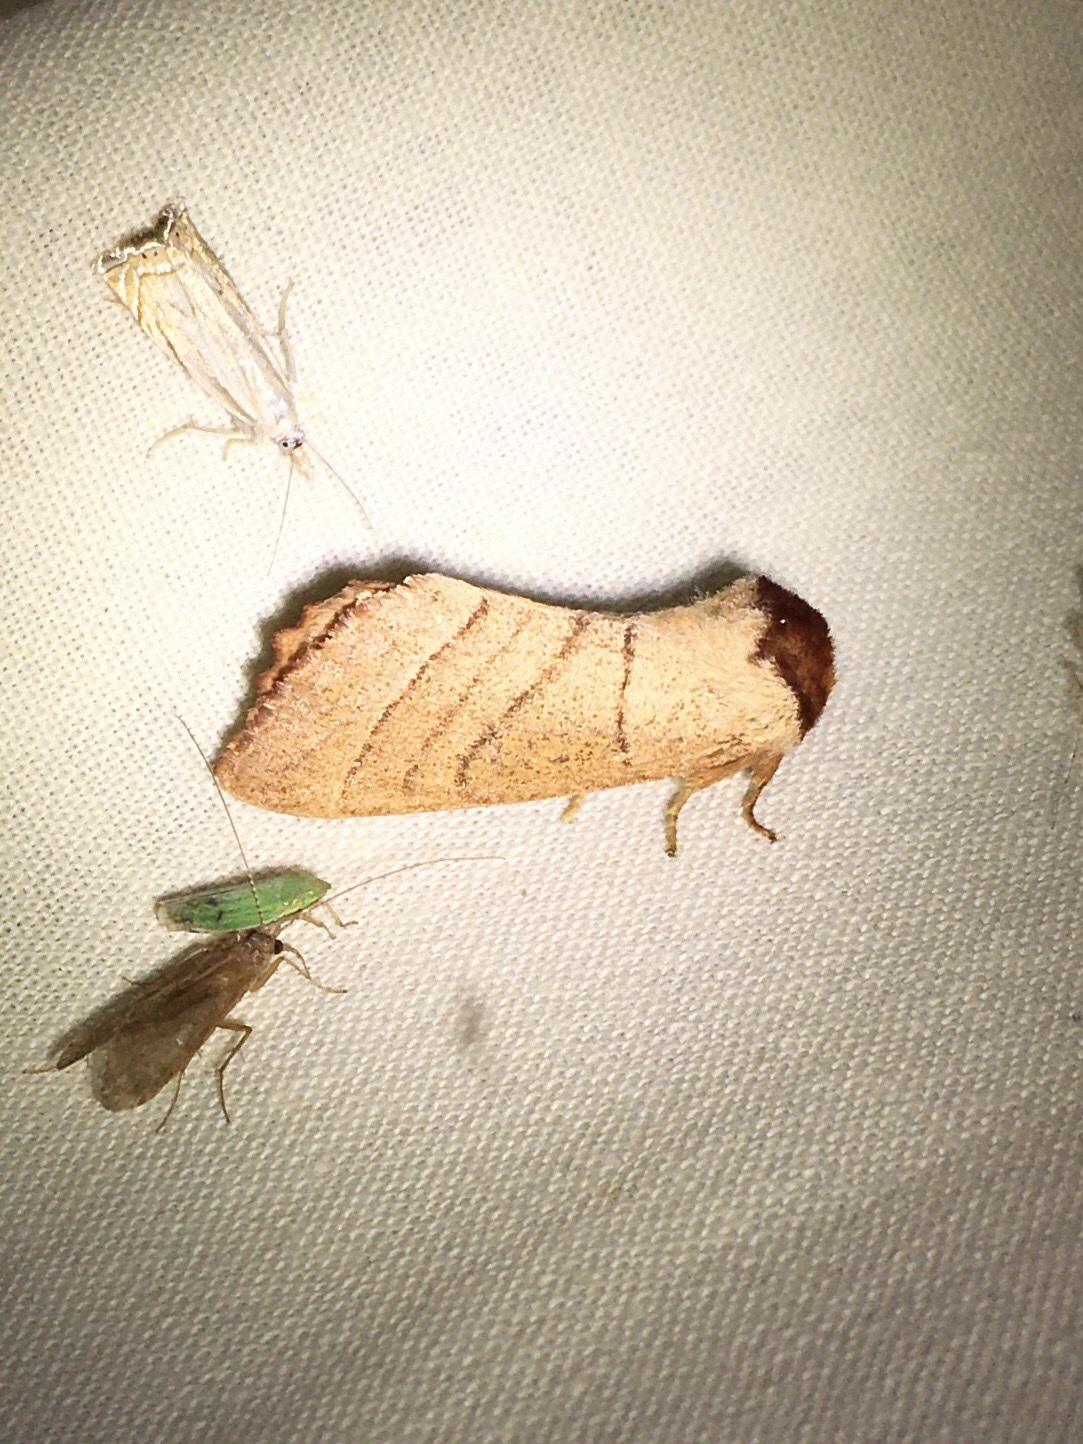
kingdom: Animalia
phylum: Arthropoda
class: Insecta
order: Lepidoptera
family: Notodontidae
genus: Datana
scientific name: Datana ministra
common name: Yellow-necked caterpillar moth
